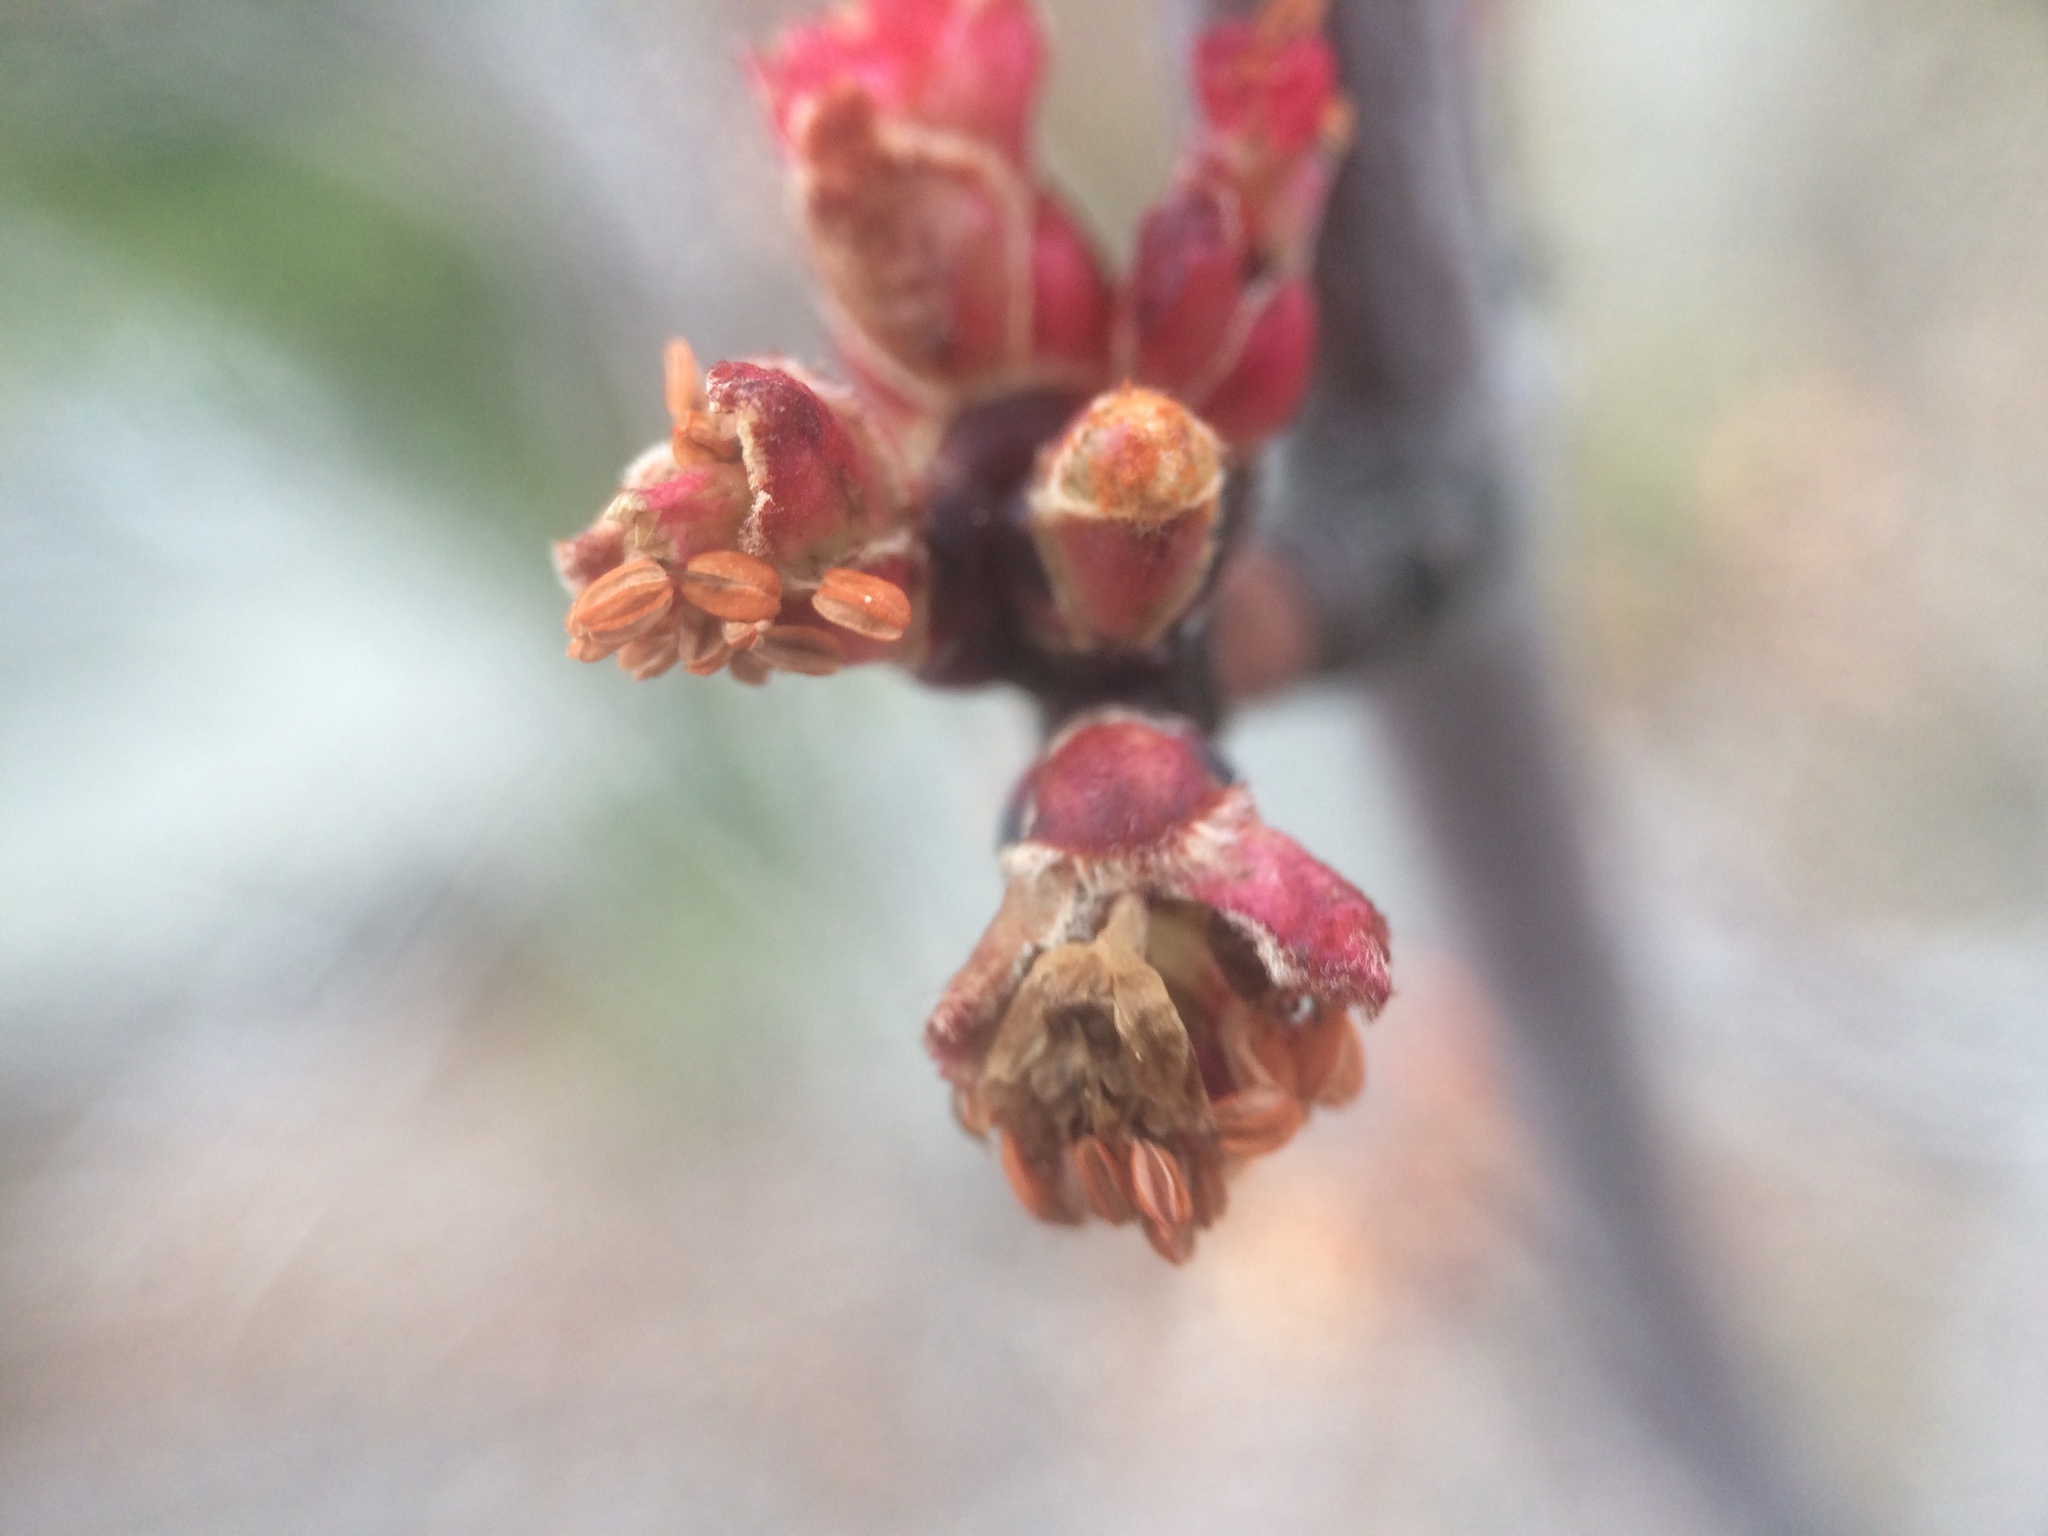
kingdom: Plantae
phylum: Tracheophyta
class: Magnoliopsida
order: Sapindales
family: Sapindaceae
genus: Acer
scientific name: Acer rubrum
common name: Red maple
